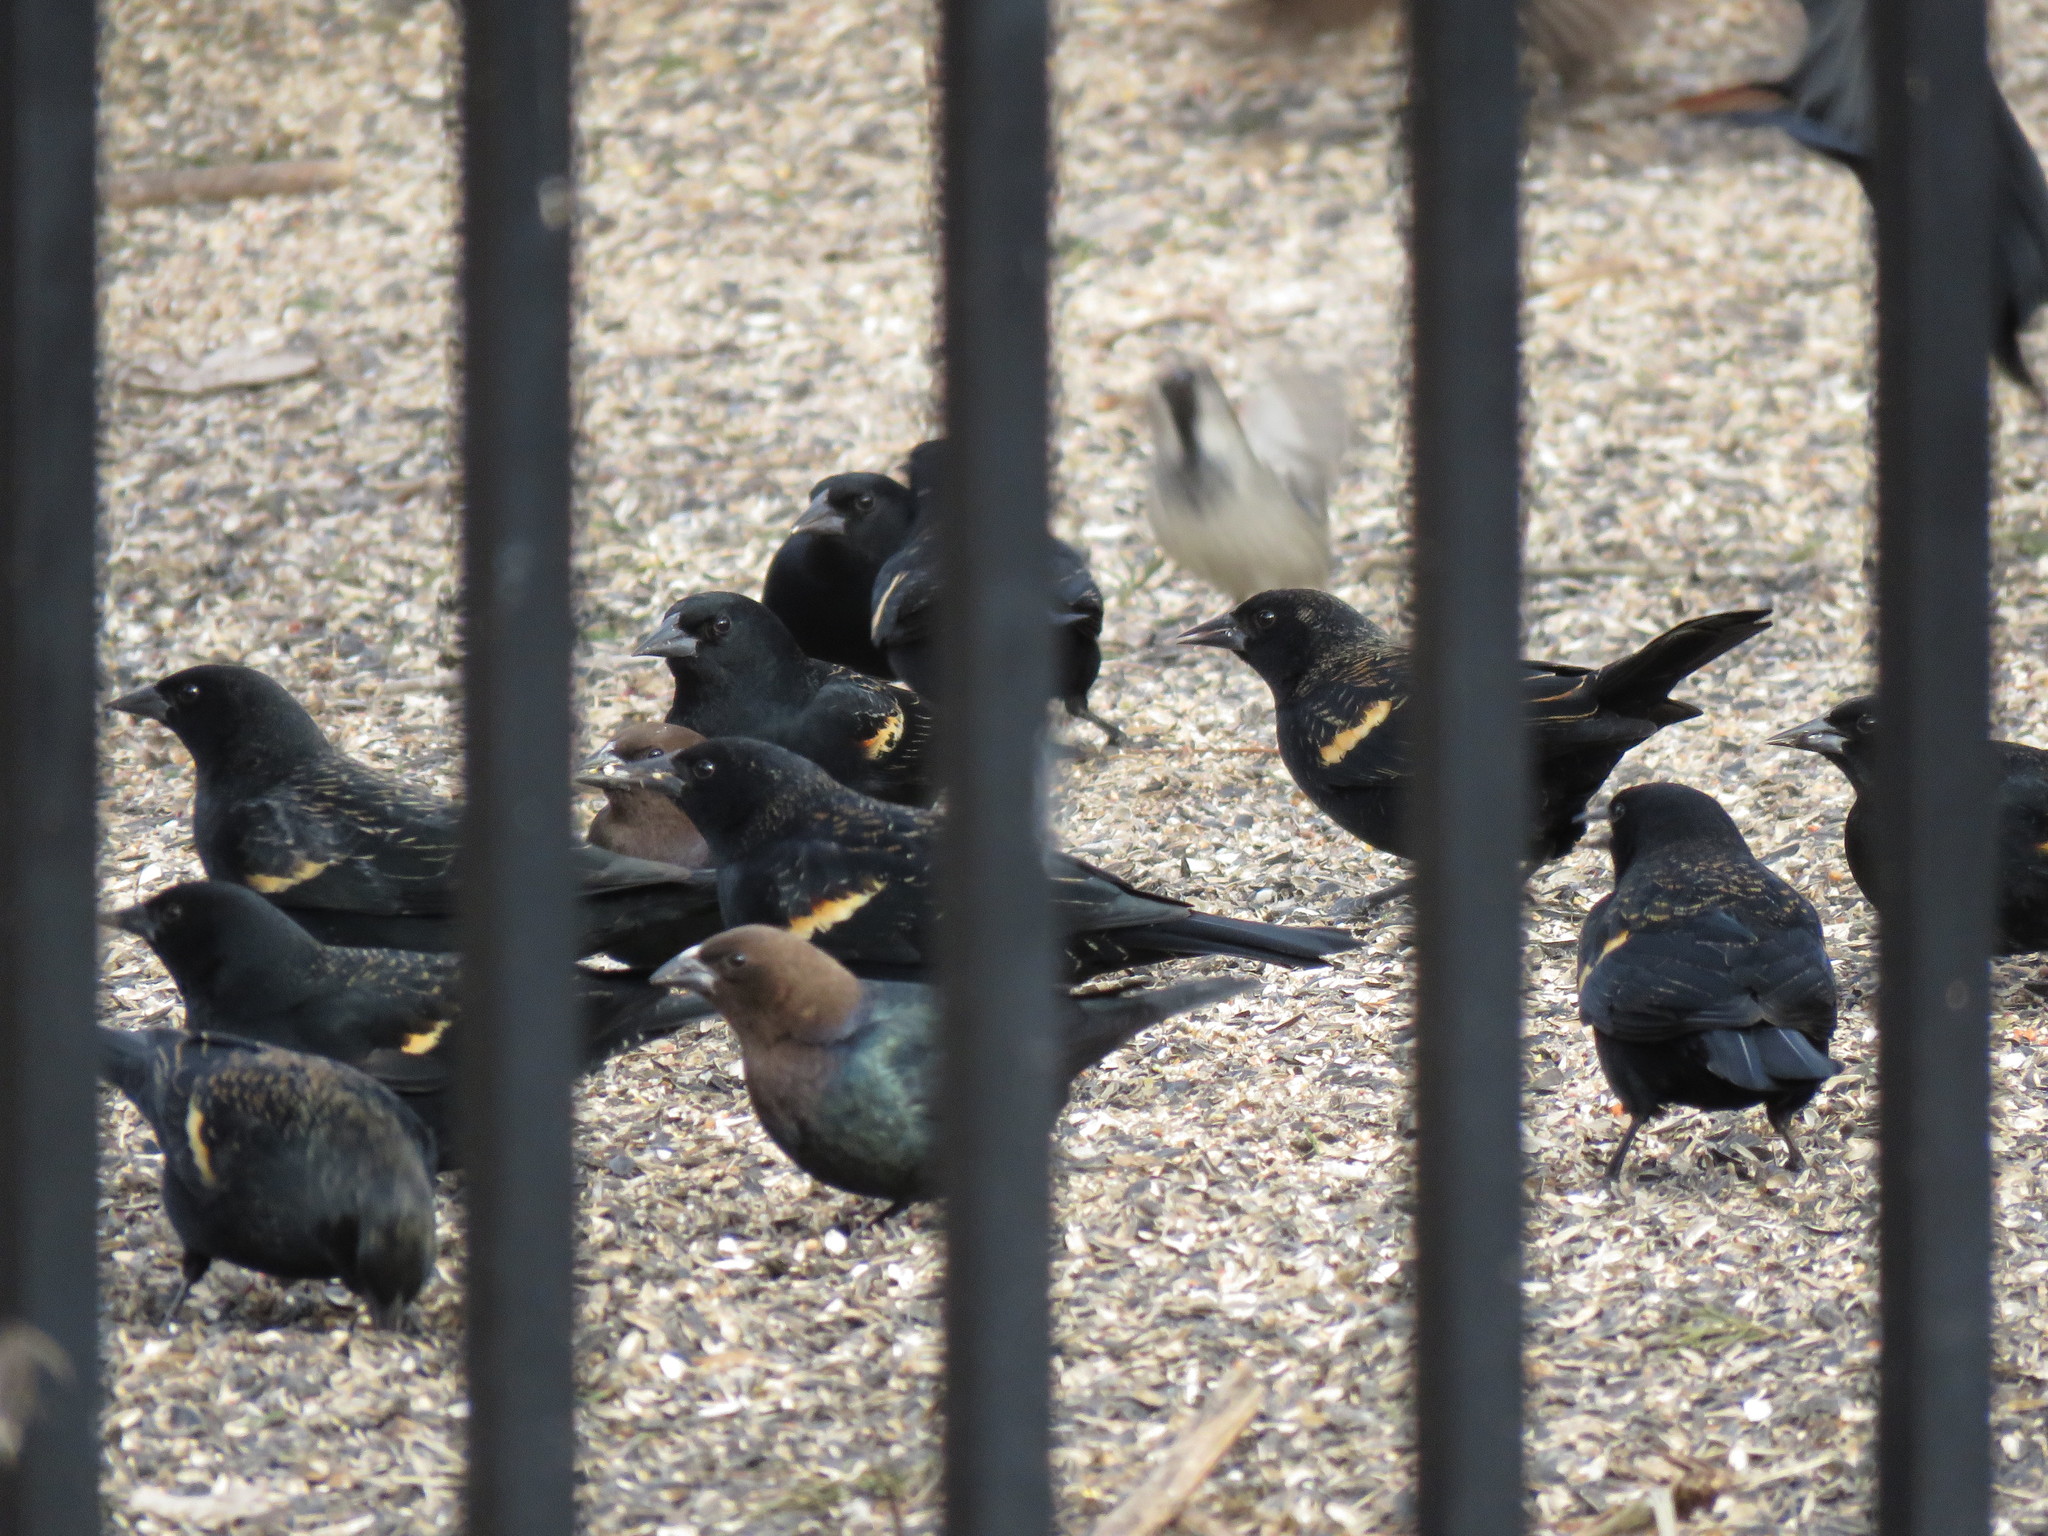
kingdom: Animalia
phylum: Chordata
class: Aves
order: Passeriformes
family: Icteridae
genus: Agelaius
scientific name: Agelaius phoeniceus
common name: Red-winged blackbird
